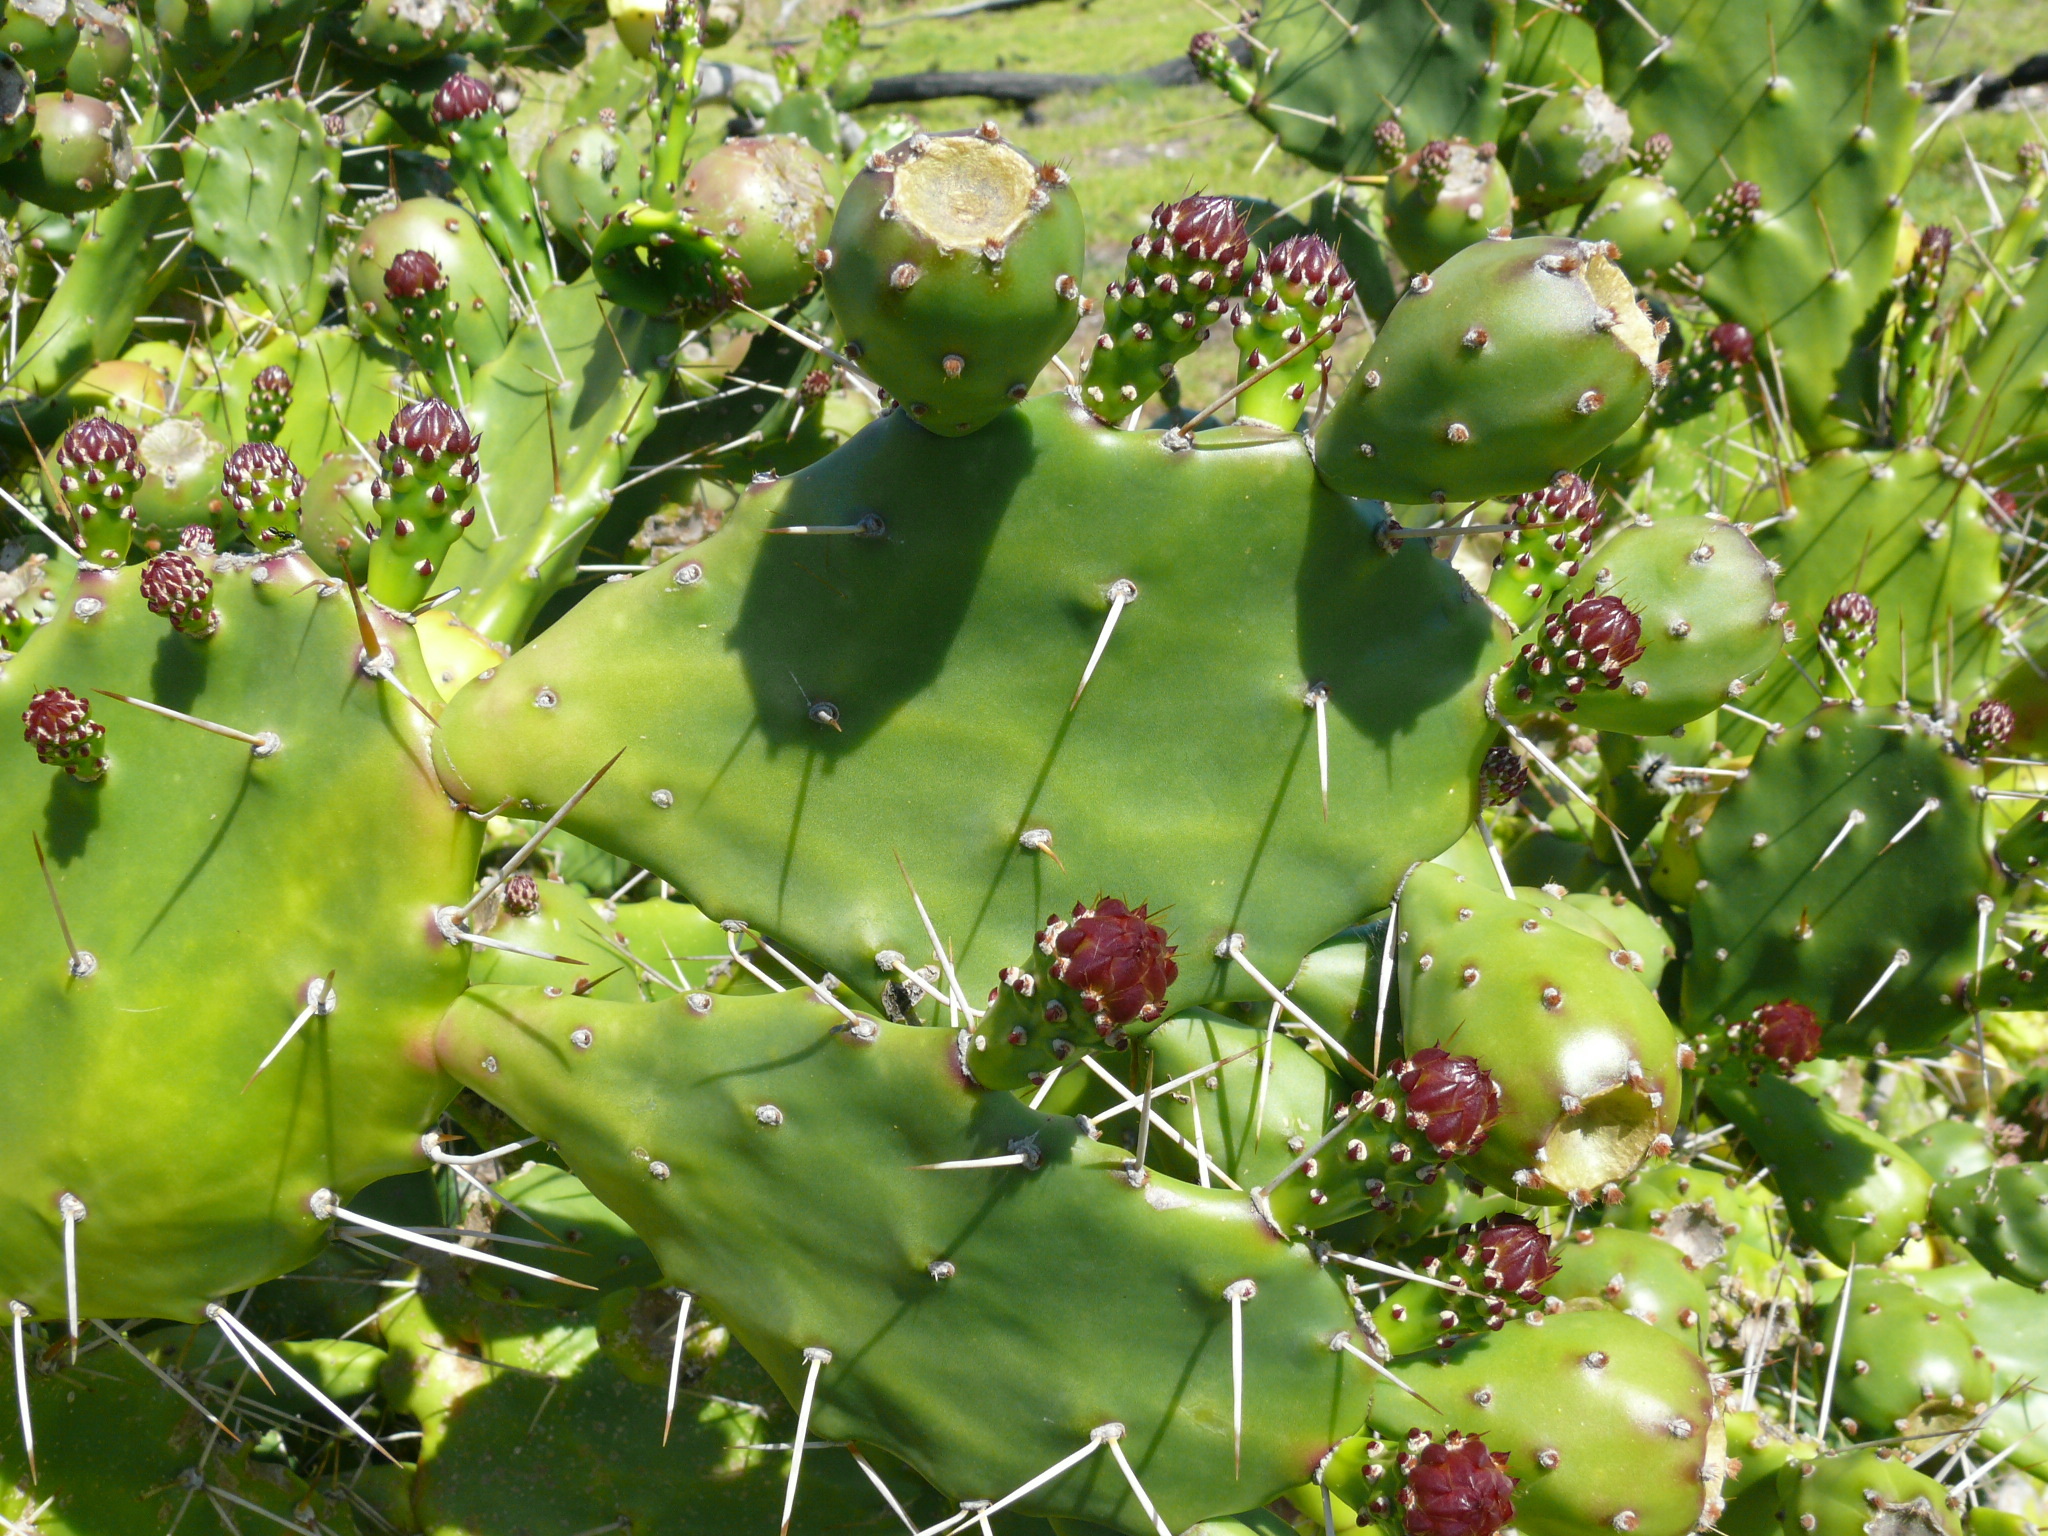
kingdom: Plantae
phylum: Tracheophyta
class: Magnoliopsida
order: Caryophyllales
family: Cactaceae
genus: Opuntia
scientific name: Opuntia monacantha
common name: Common pricklypear
